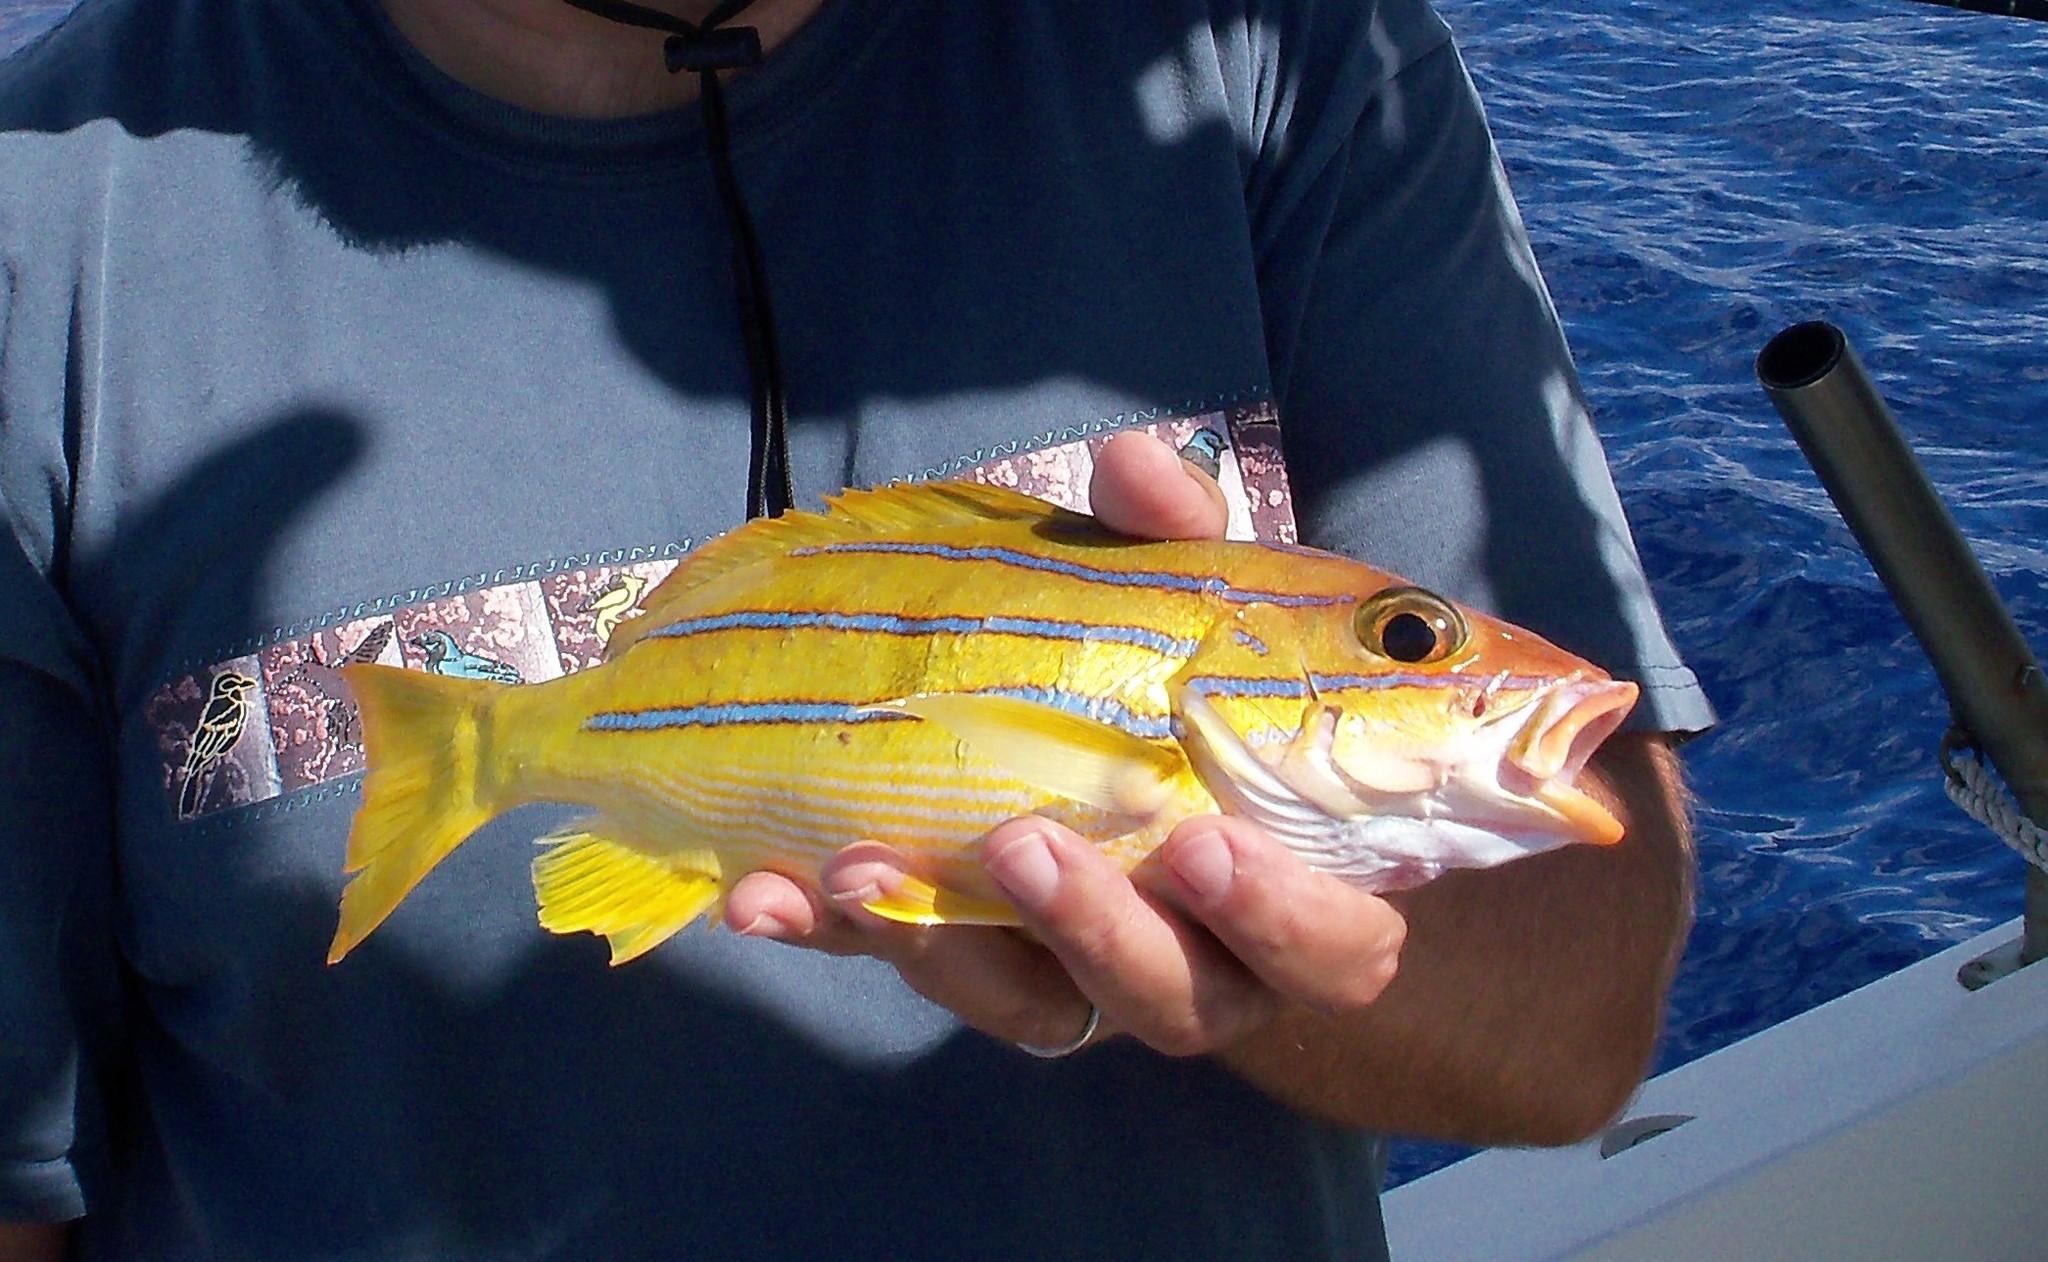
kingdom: Animalia
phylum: Chordata
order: Perciformes
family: Lutjanidae
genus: Lutjanus
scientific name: Lutjanus kasmira
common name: Common bluestripe snapper
